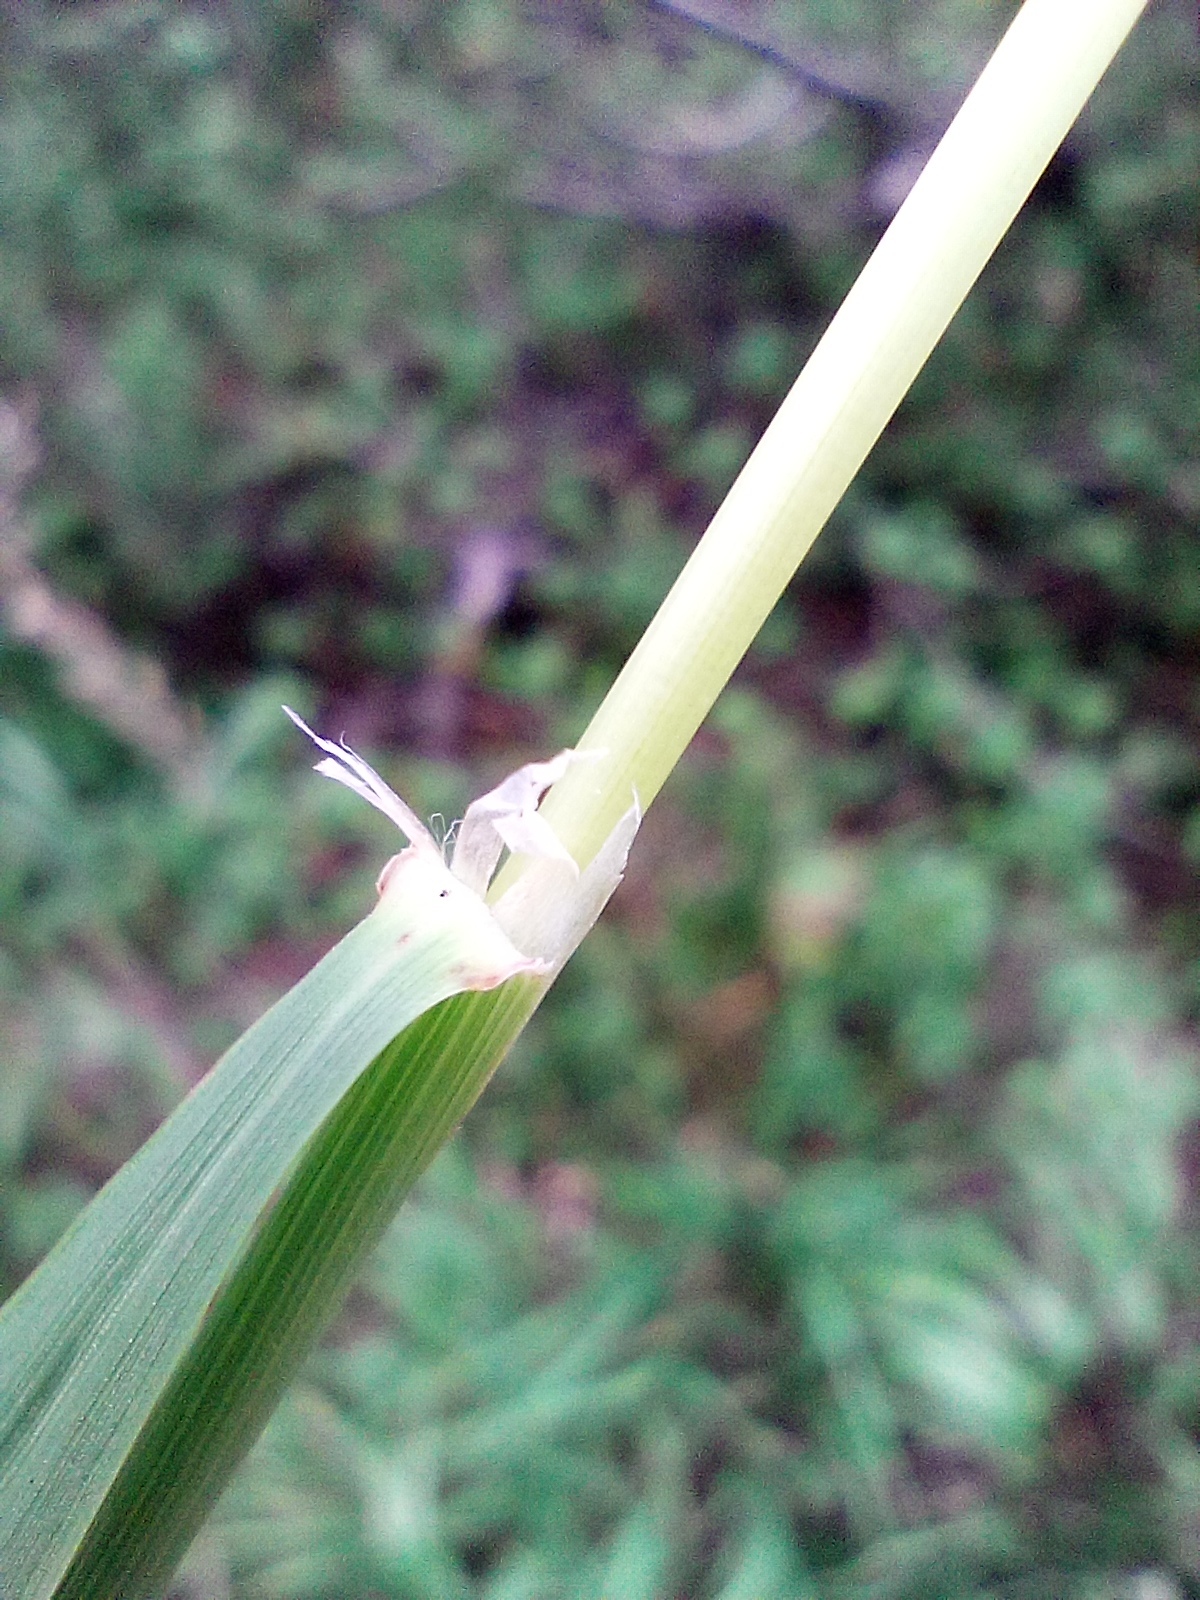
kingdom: Plantae
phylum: Tracheophyta
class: Liliopsida
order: Poales
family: Poaceae
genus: Calamagrostis
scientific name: Calamagrostis varia
